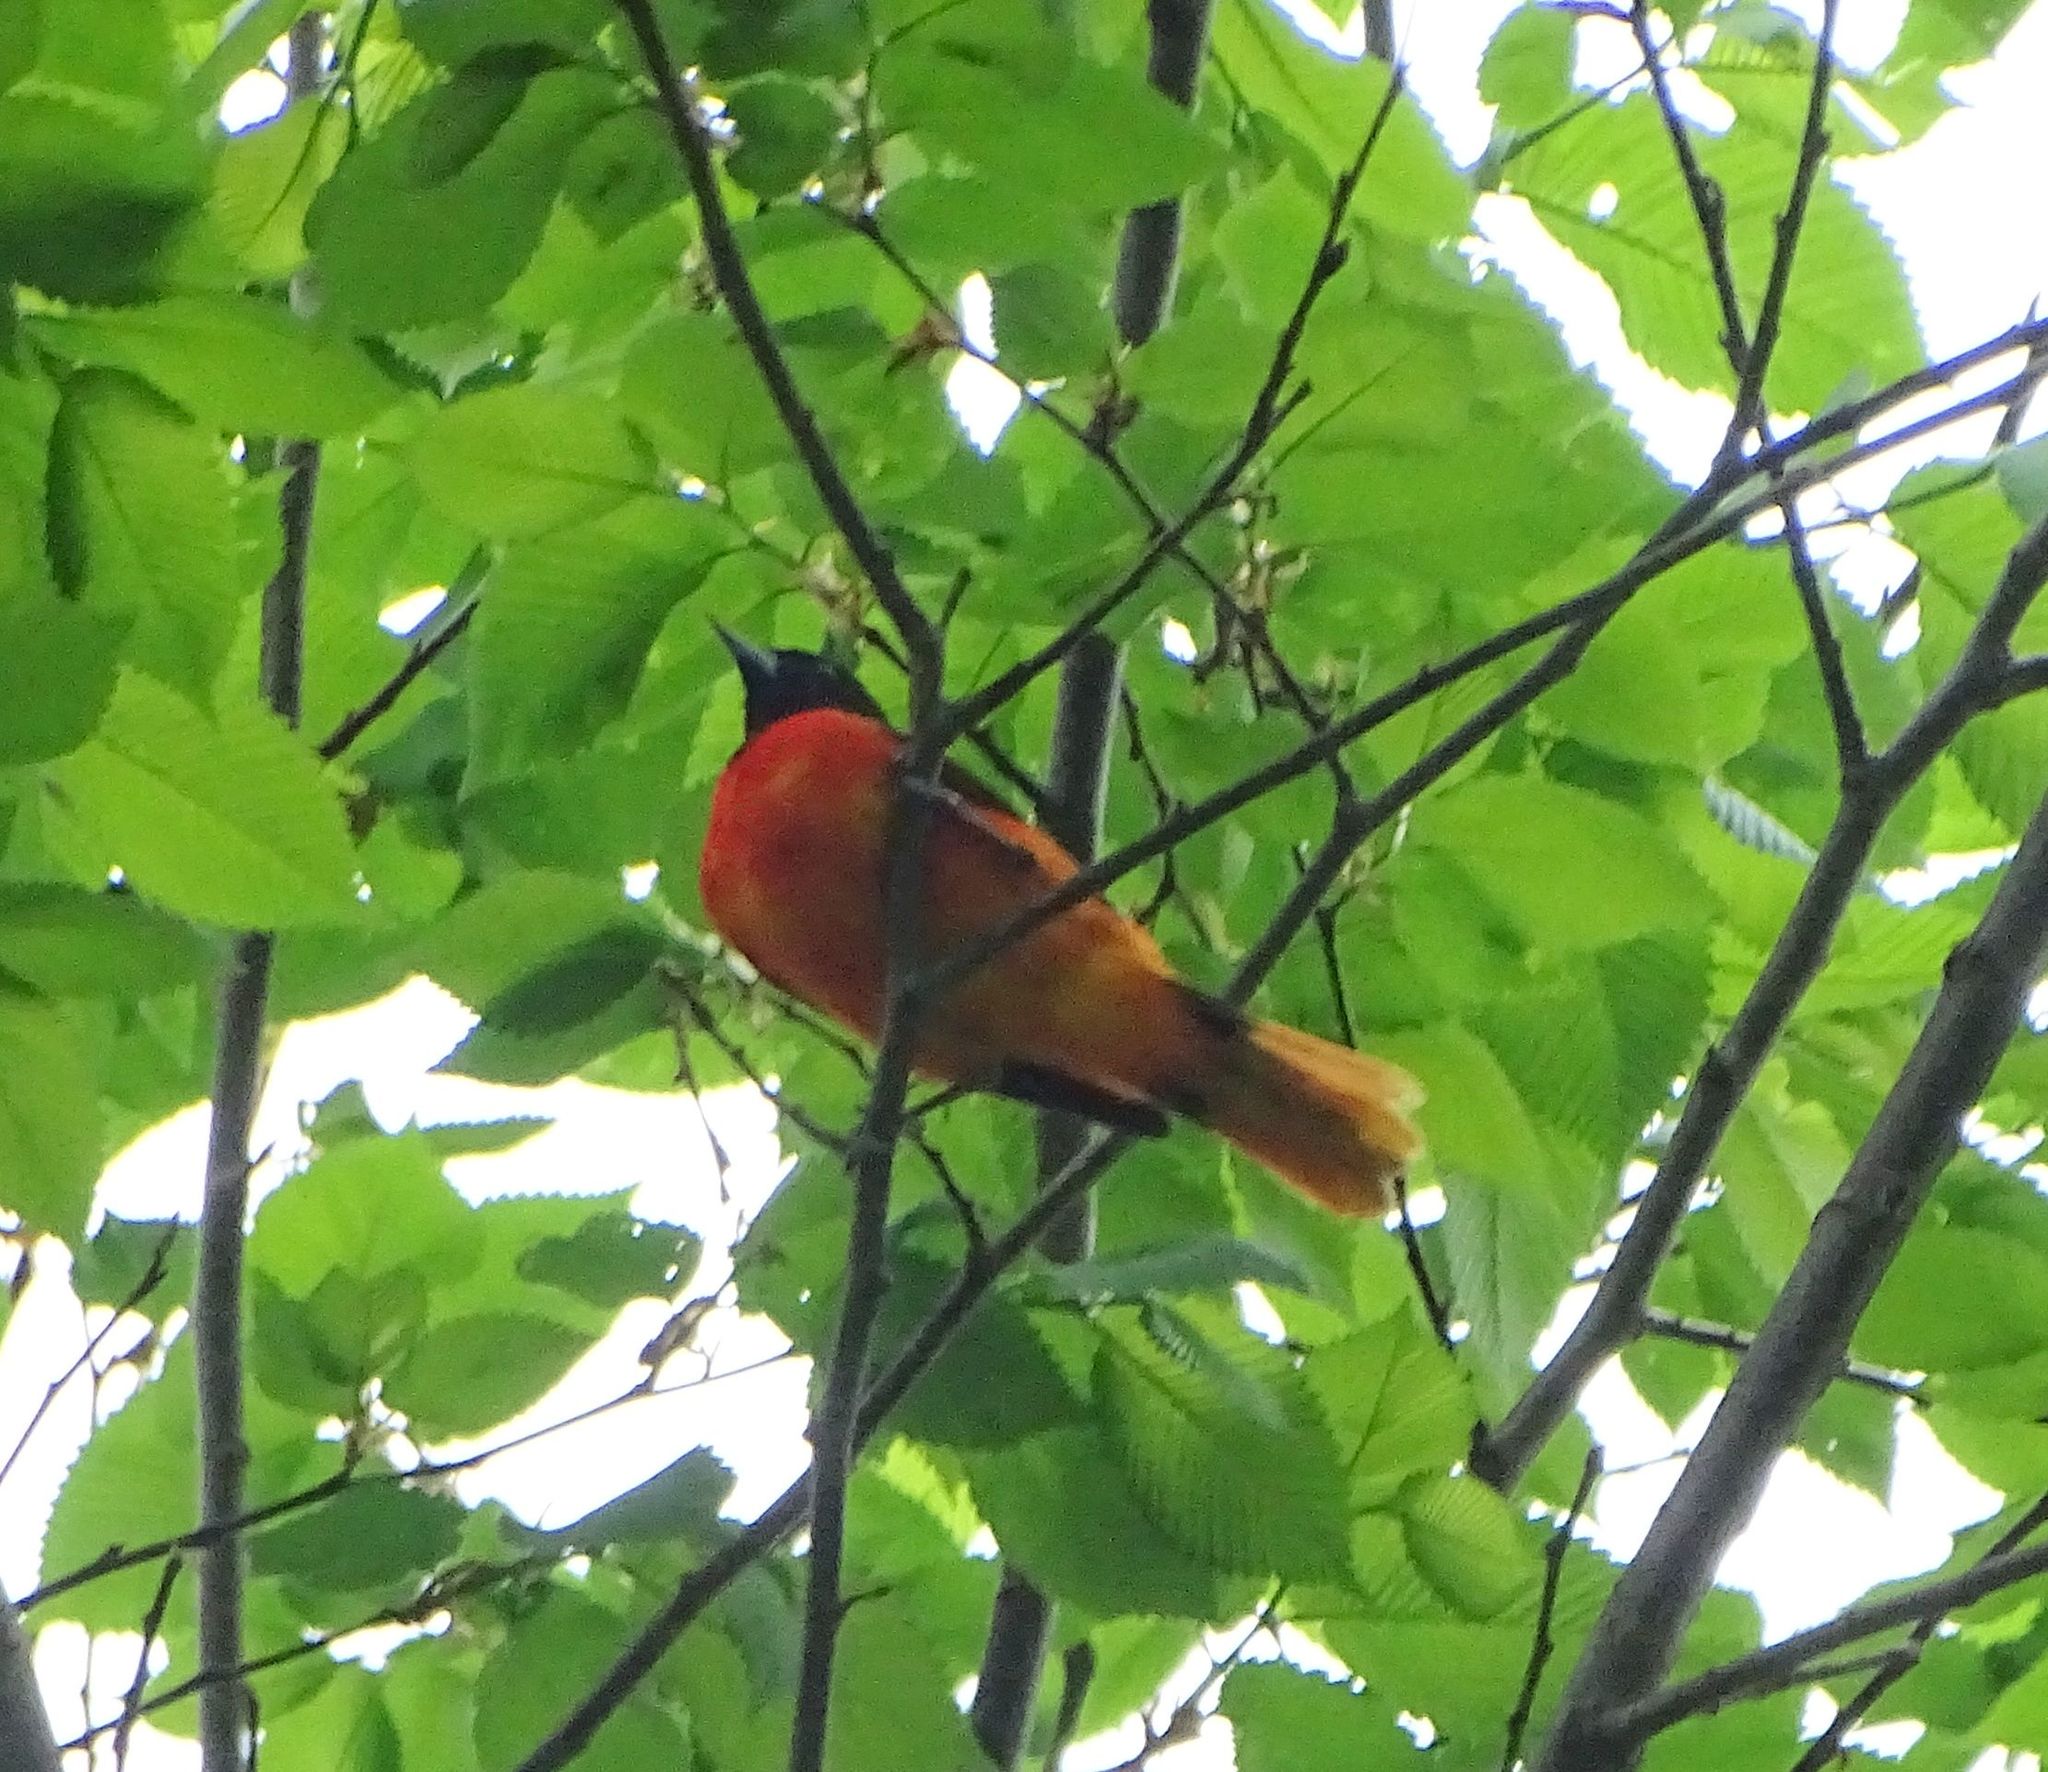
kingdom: Animalia
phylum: Chordata
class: Aves
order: Passeriformes
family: Icteridae
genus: Icterus
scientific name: Icterus galbula
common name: Baltimore oriole
